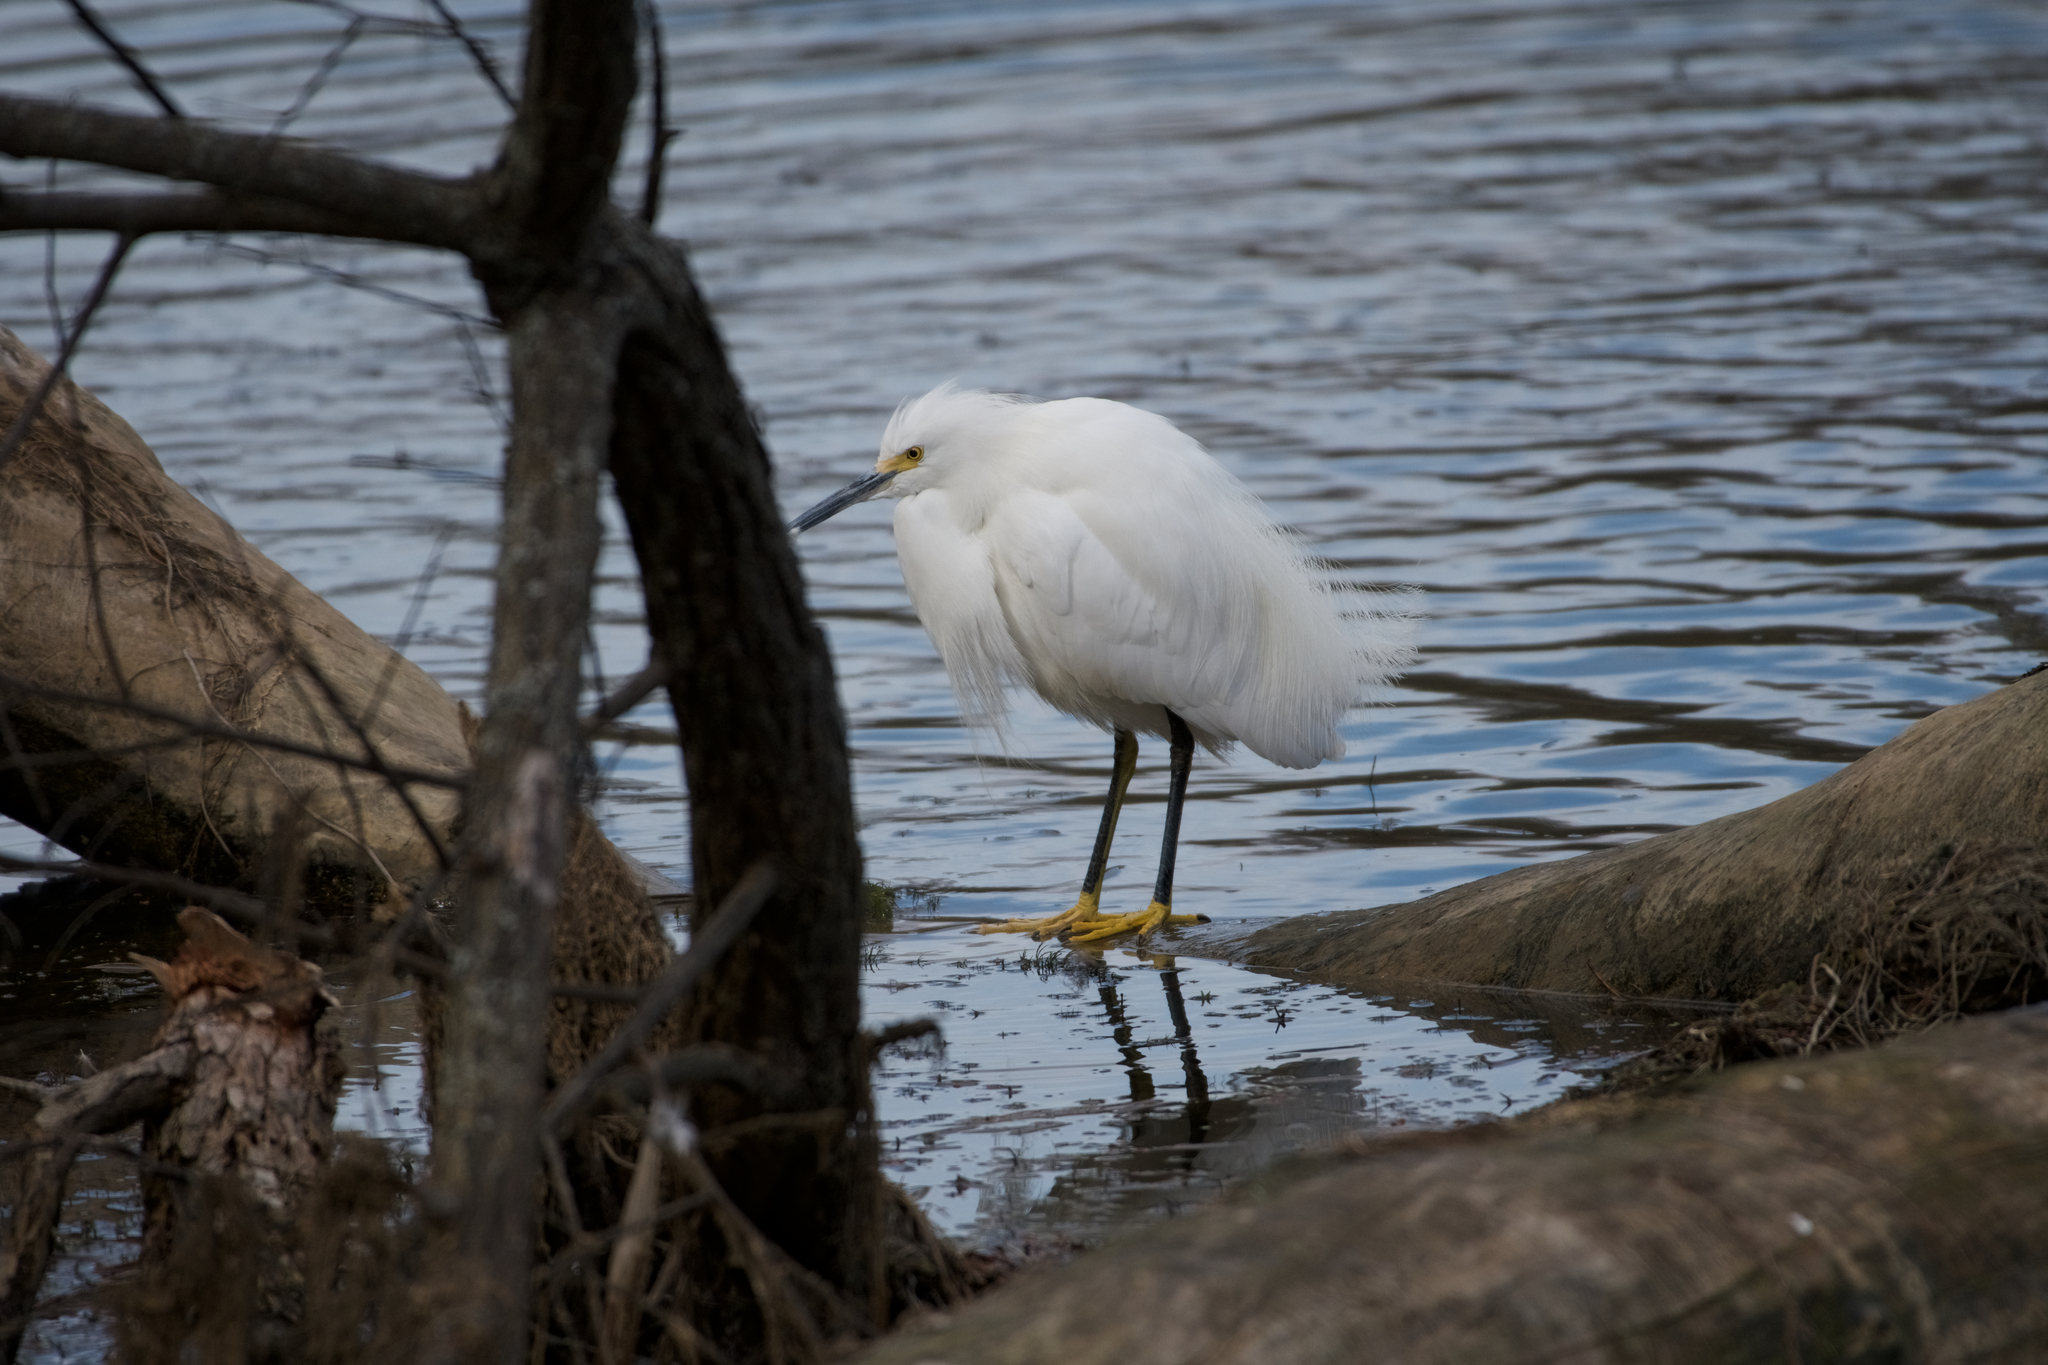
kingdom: Animalia
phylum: Chordata
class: Aves
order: Pelecaniformes
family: Ardeidae
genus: Egretta
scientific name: Egretta thula
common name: Snowy egret
